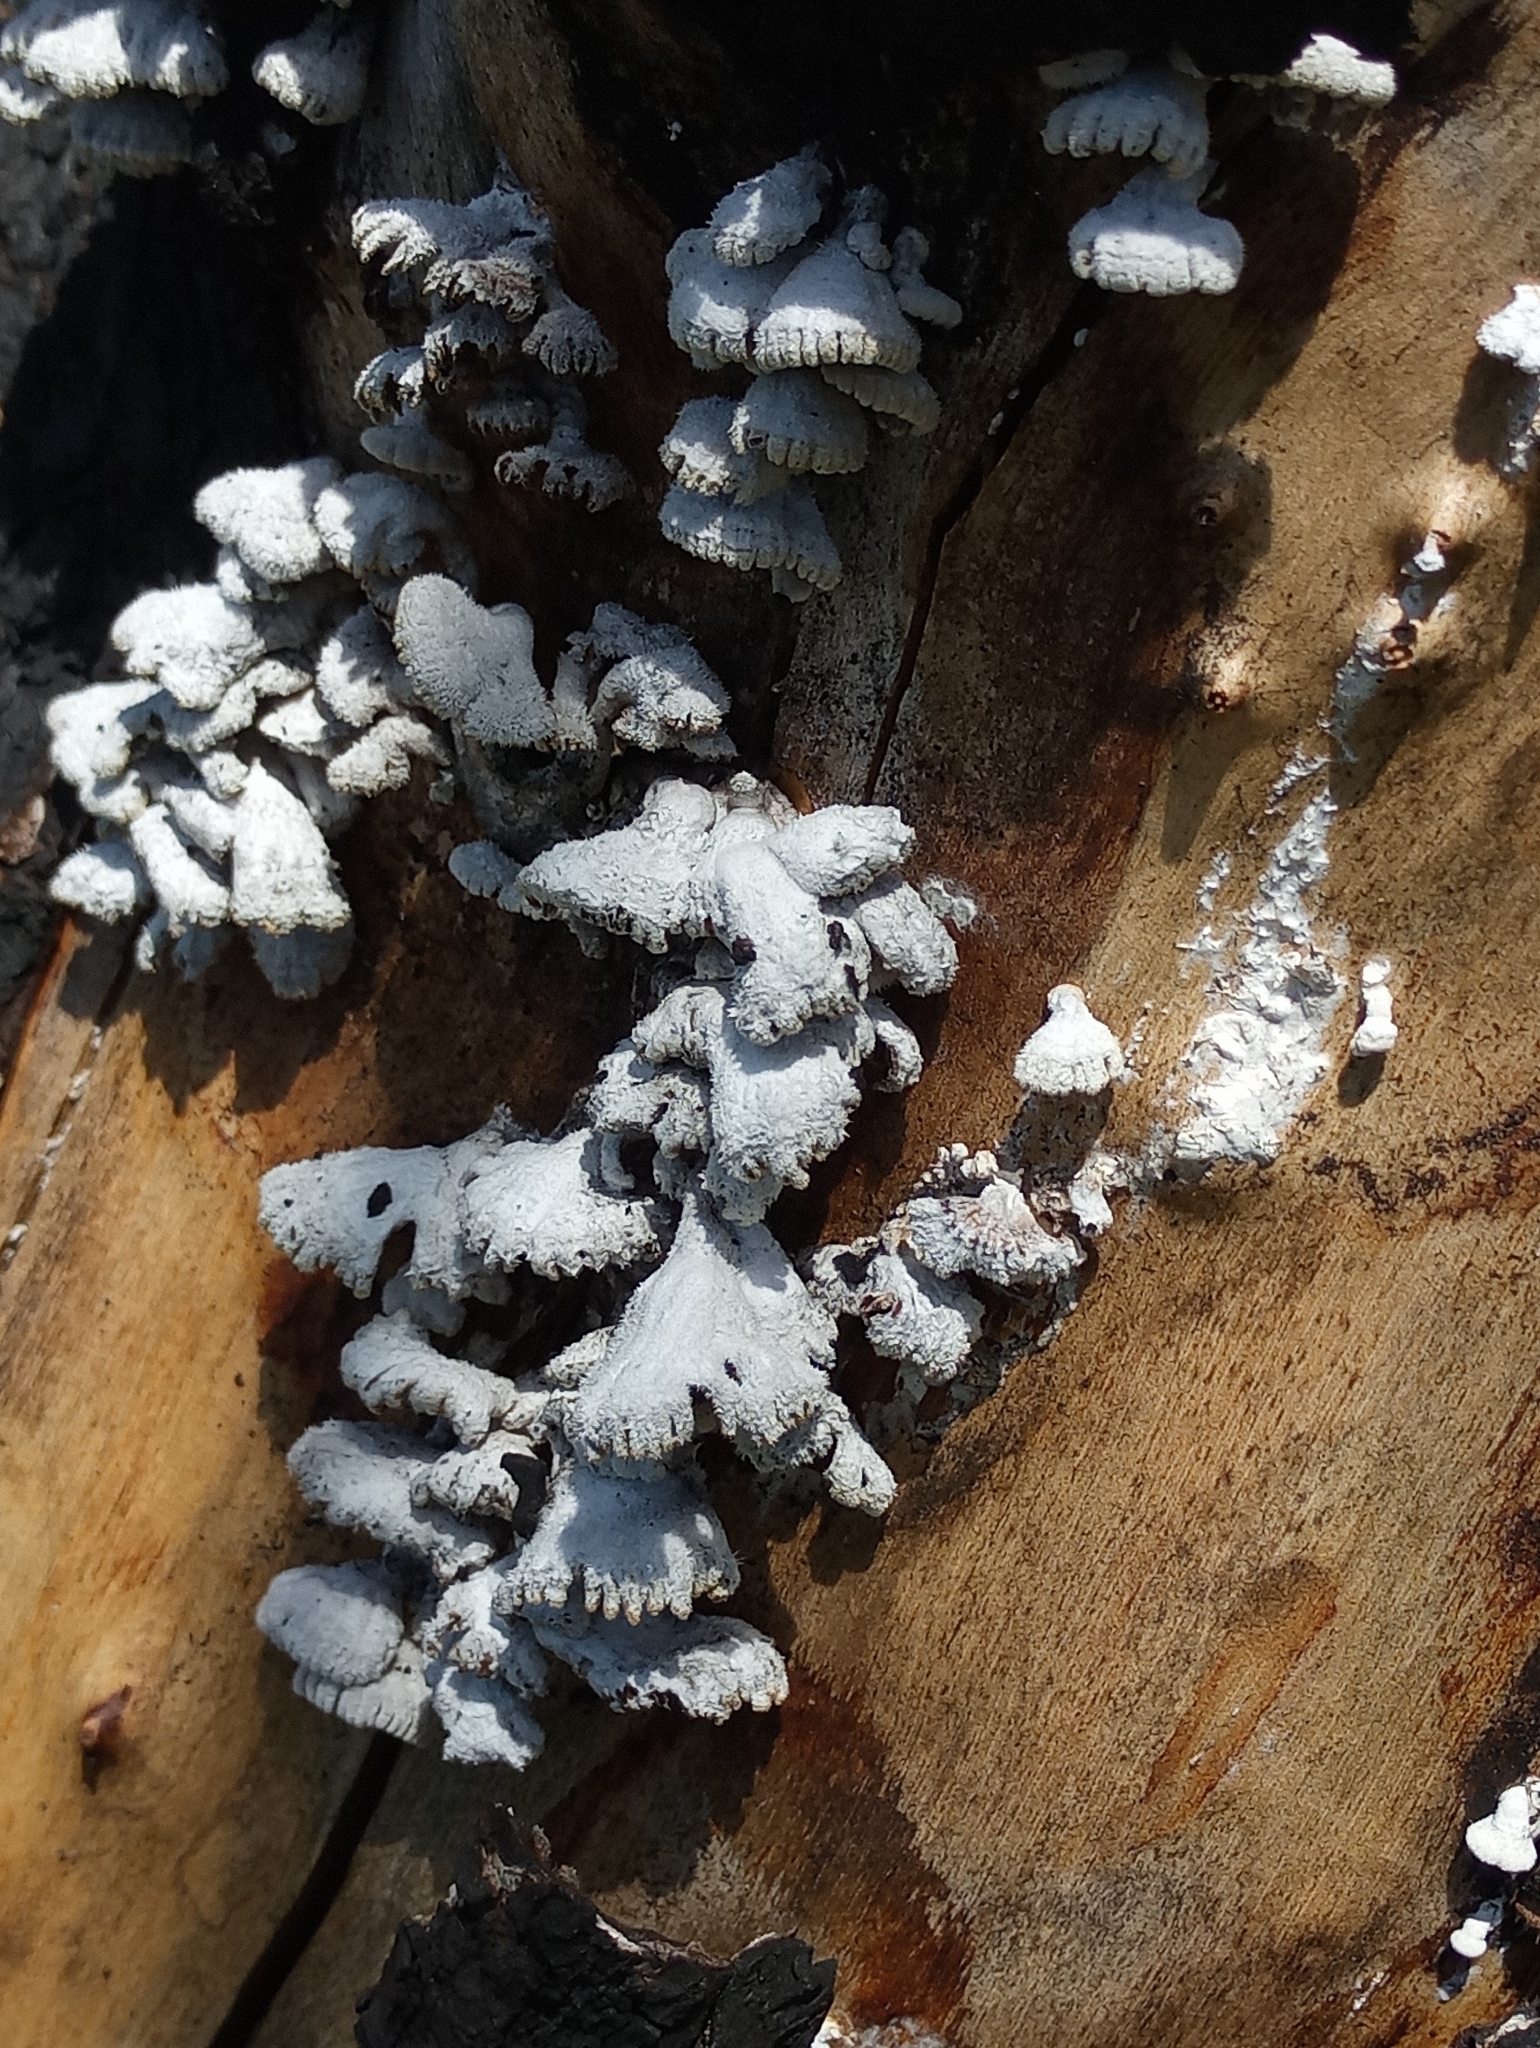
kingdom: Fungi
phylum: Basidiomycota
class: Agaricomycetes
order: Agaricales
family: Schizophyllaceae
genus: Schizophyllum
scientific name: Schizophyllum commune
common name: Common porecrust
